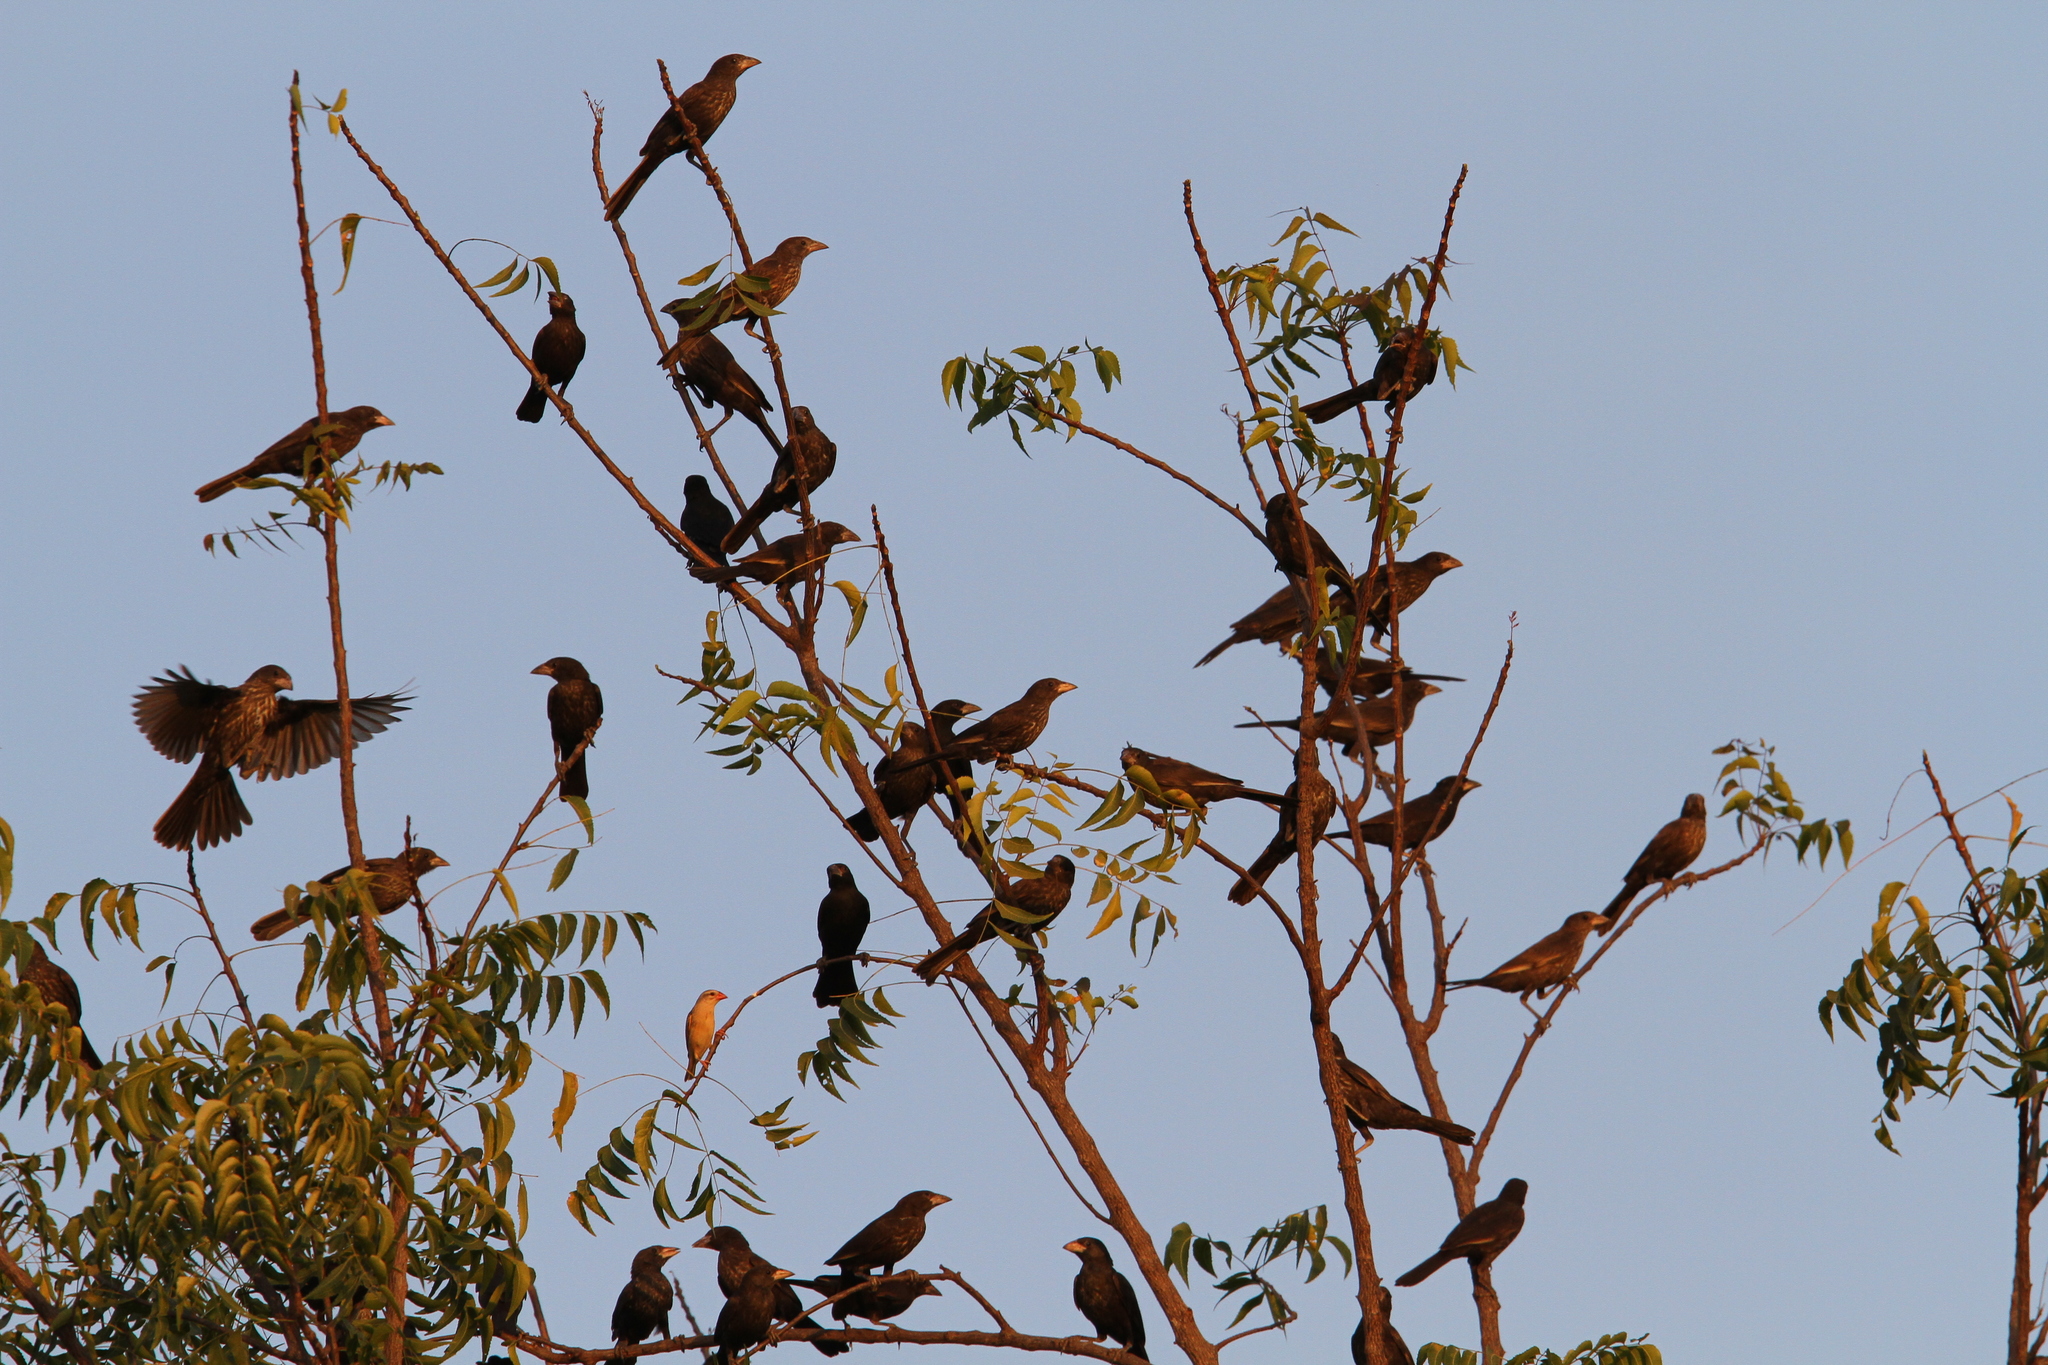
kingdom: Animalia
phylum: Chordata
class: Aves
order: Passeriformes
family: Ploceidae
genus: Bubalornis
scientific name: Bubalornis albirostris
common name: White-billed buffalo weaver
